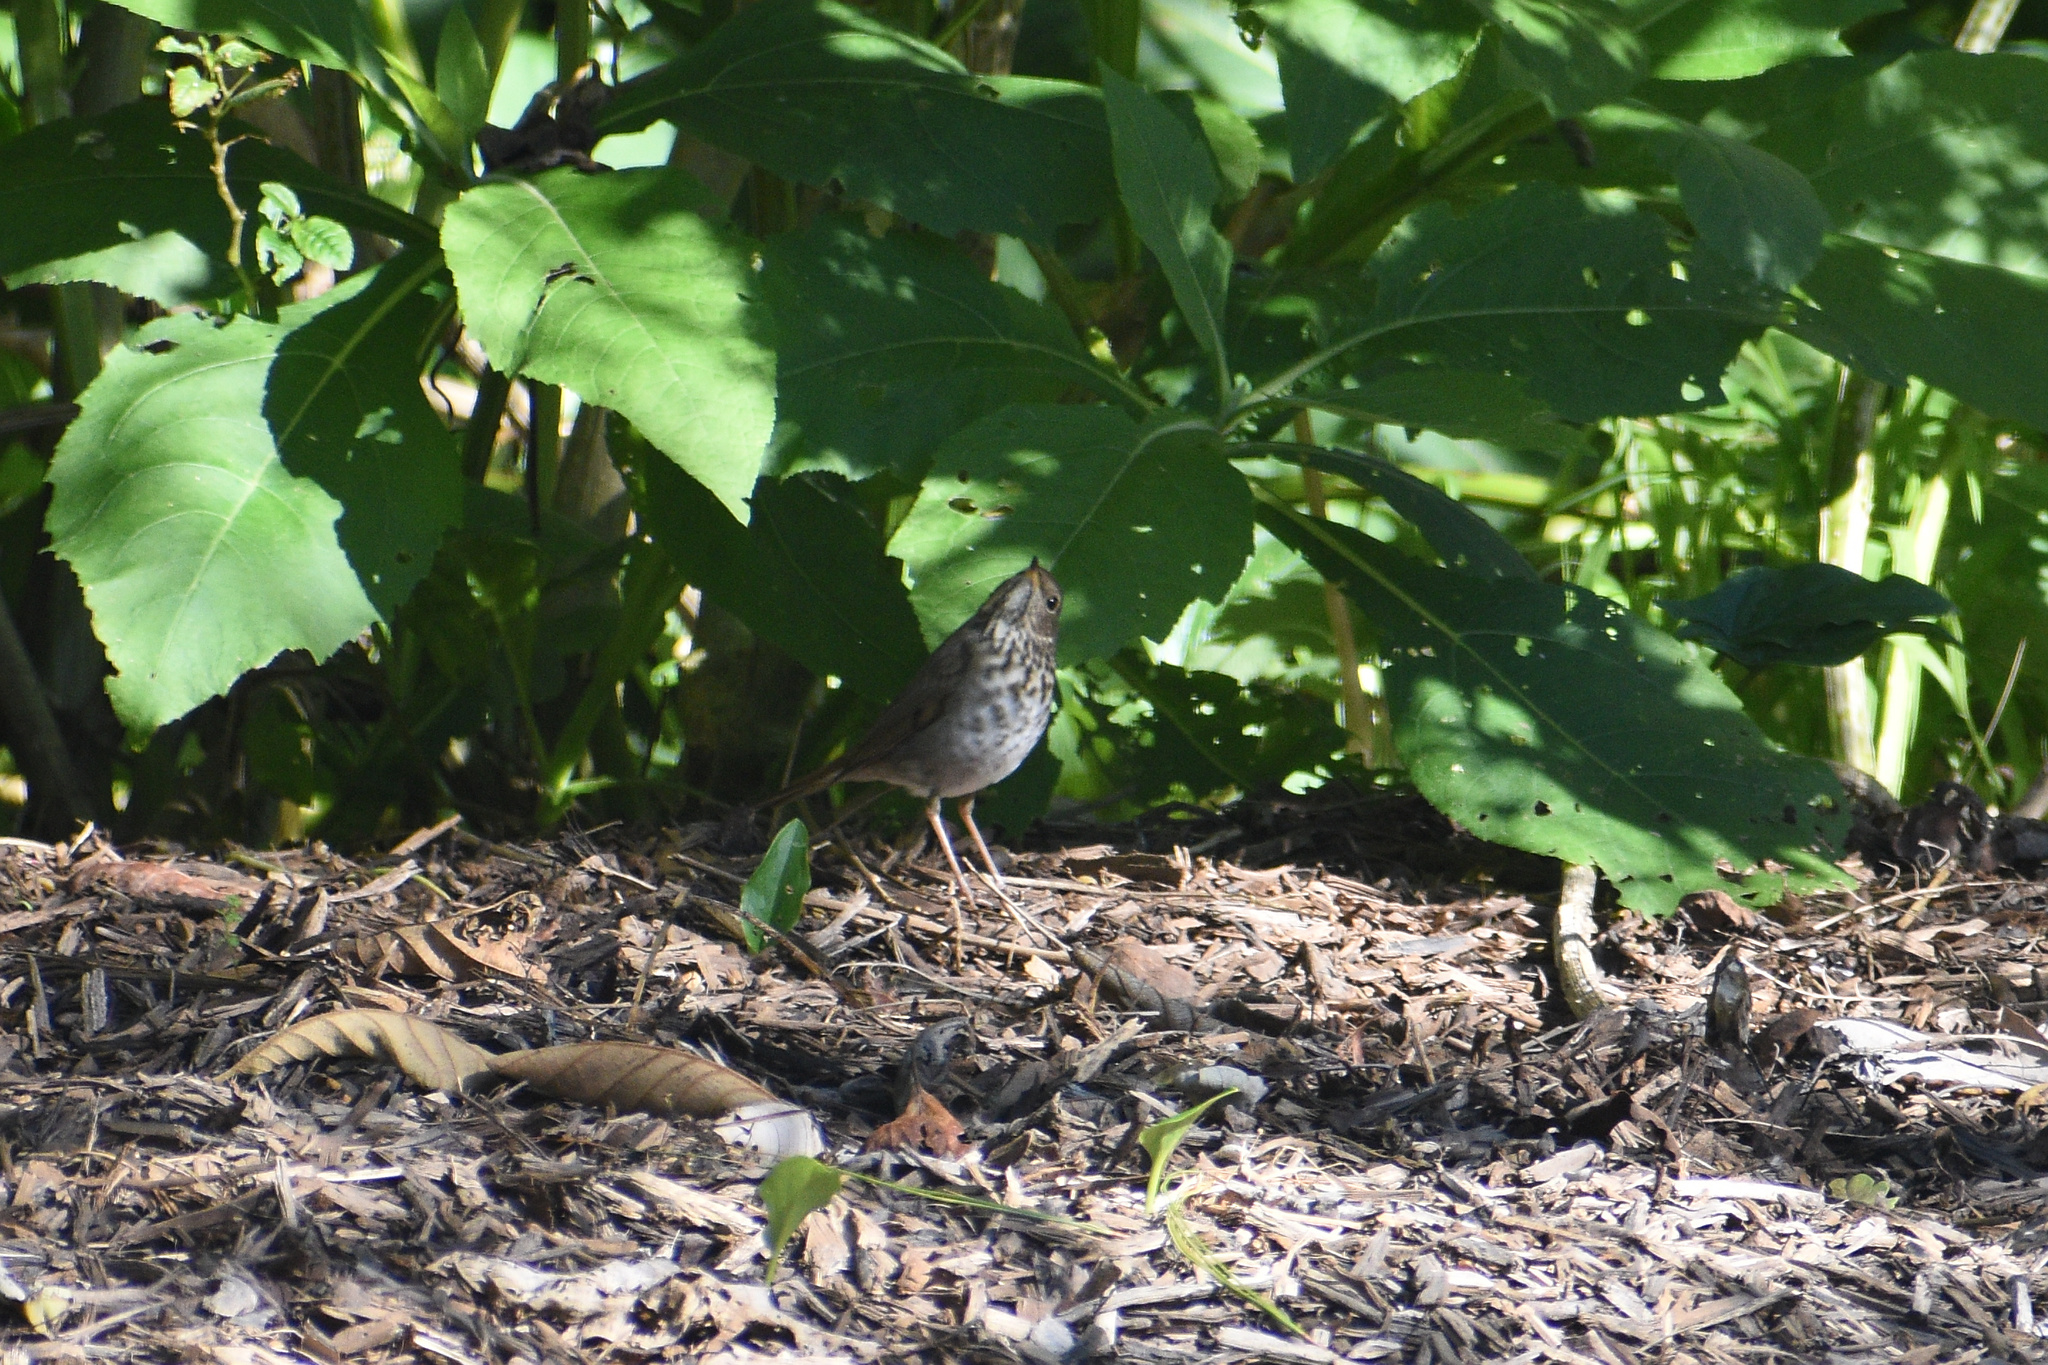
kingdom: Animalia
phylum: Chordata
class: Aves
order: Passeriformes
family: Turdidae
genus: Catharus
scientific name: Catharus guttatus
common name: Hermit thrush
